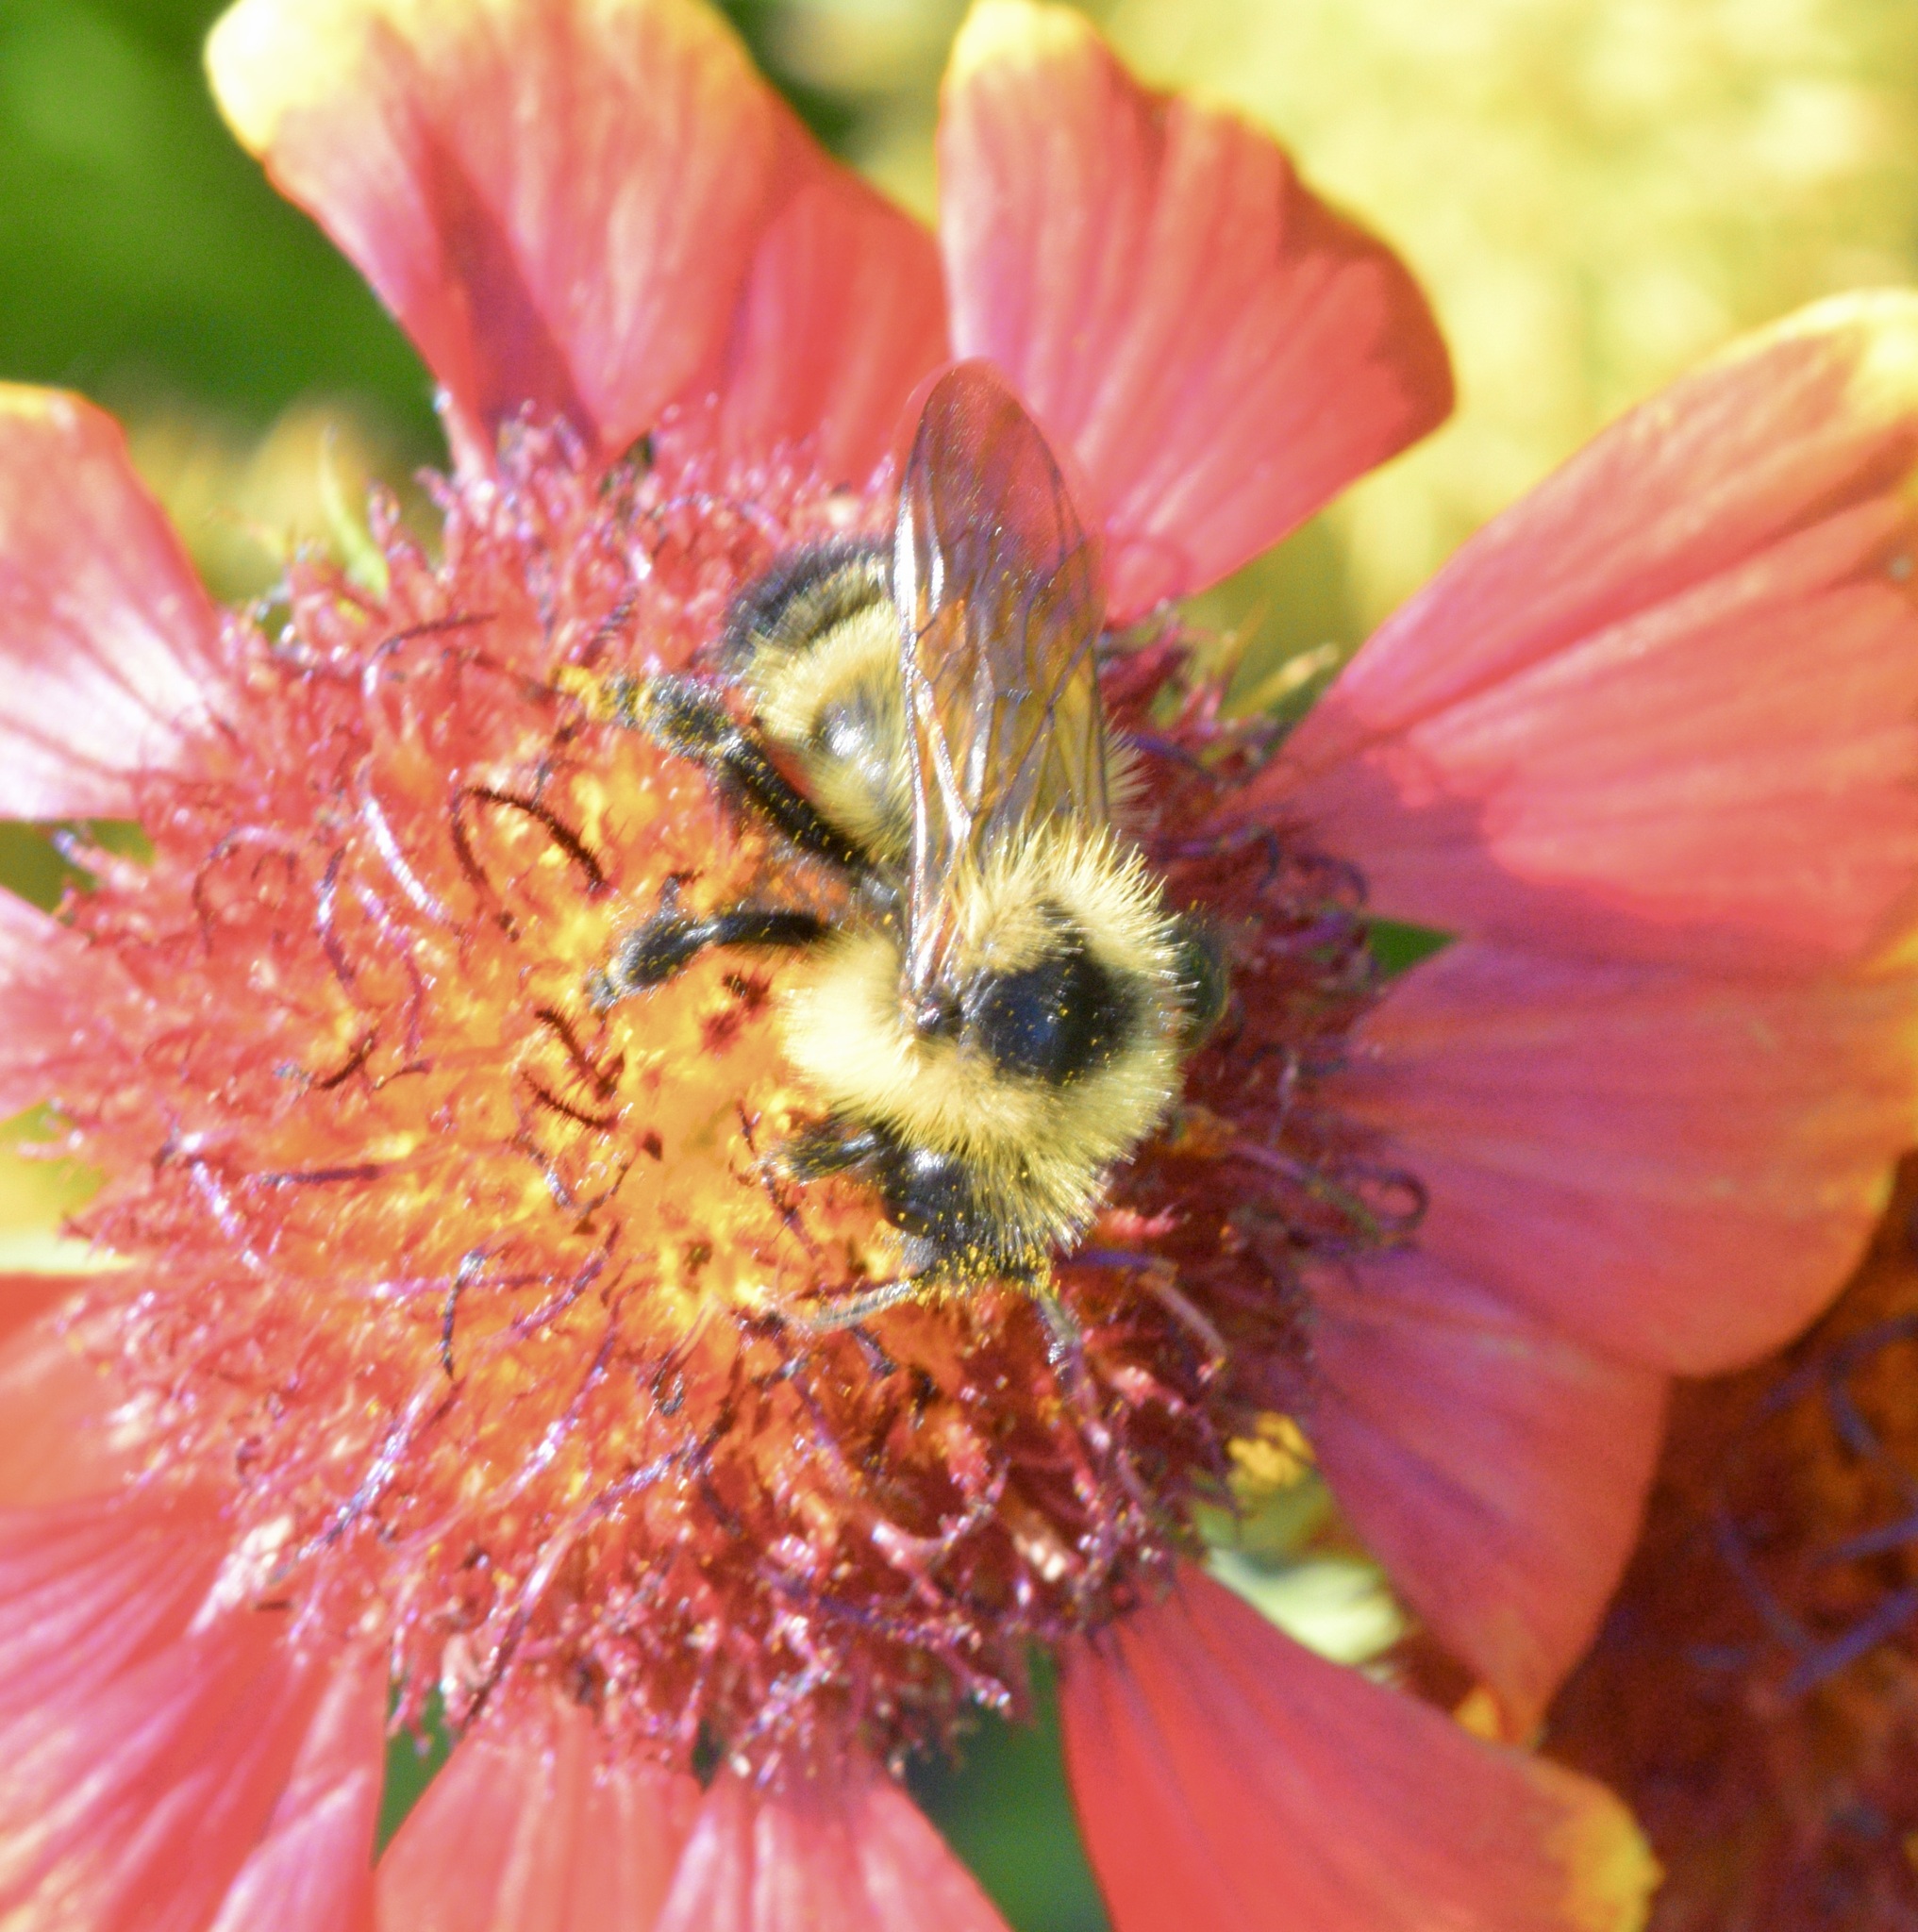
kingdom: Animalia
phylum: Arthropoda
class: Insecta
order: Hymenoptera
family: Apidae
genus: Bombus
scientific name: Bombus citrinus
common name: Lemon cuckoo bumble bee
